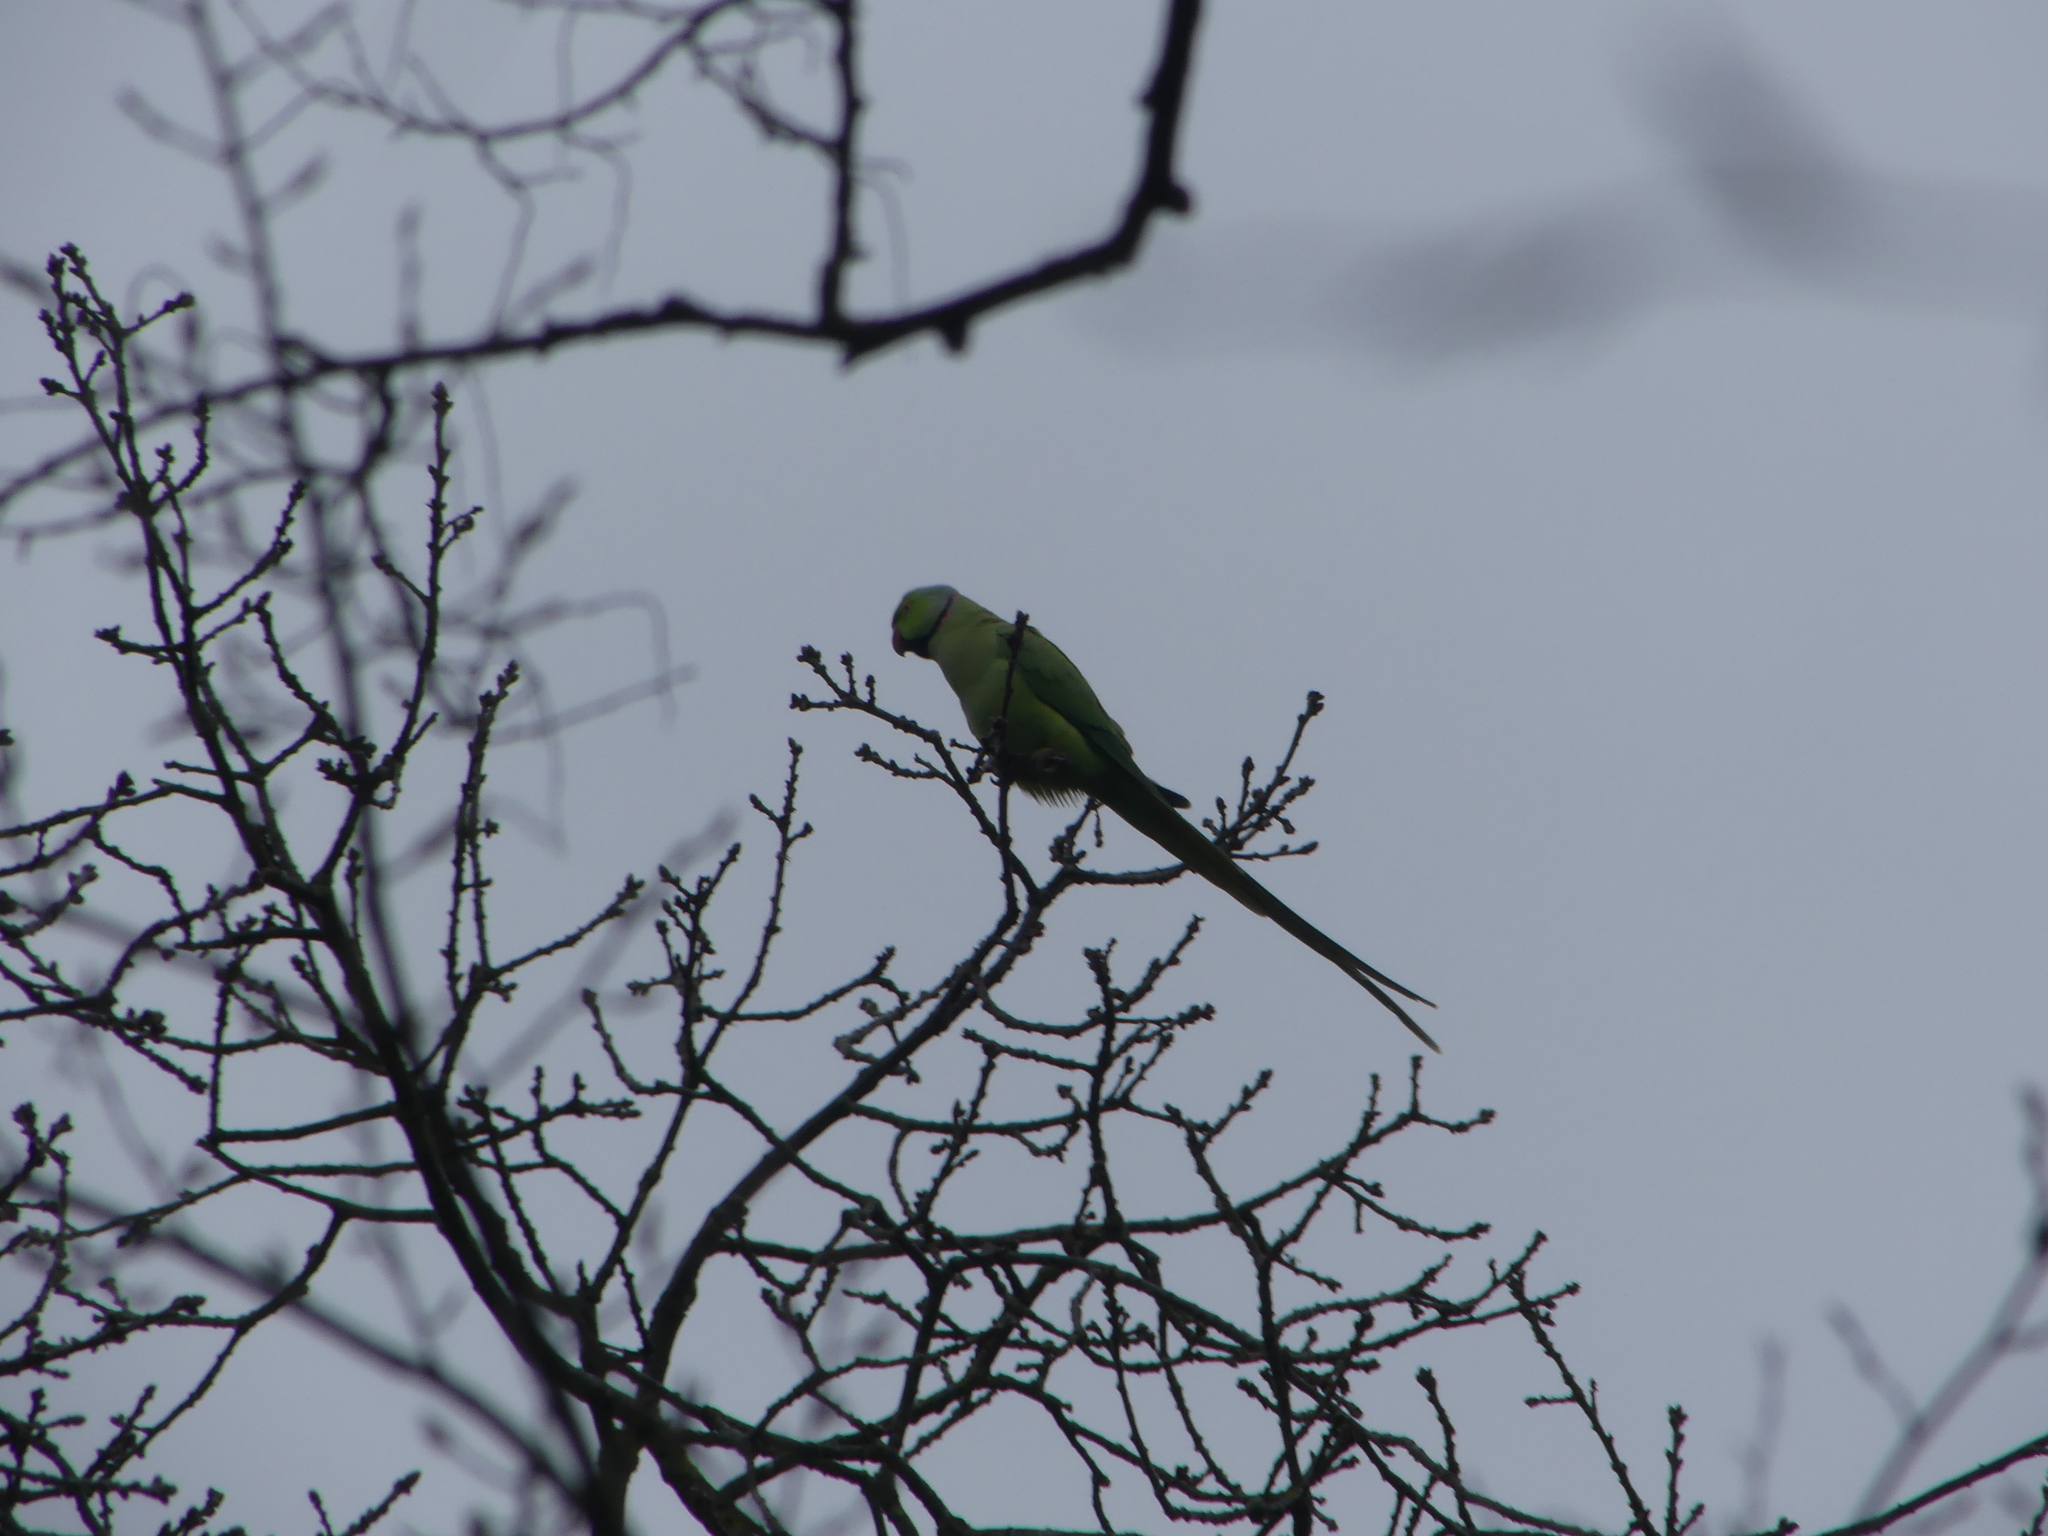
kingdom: Animalia
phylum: Chordata
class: Aves
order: Psittaciformes
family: Psittacidae
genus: Psittacula
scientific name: Psittacula krameri
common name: Rose-ringed parakeet
